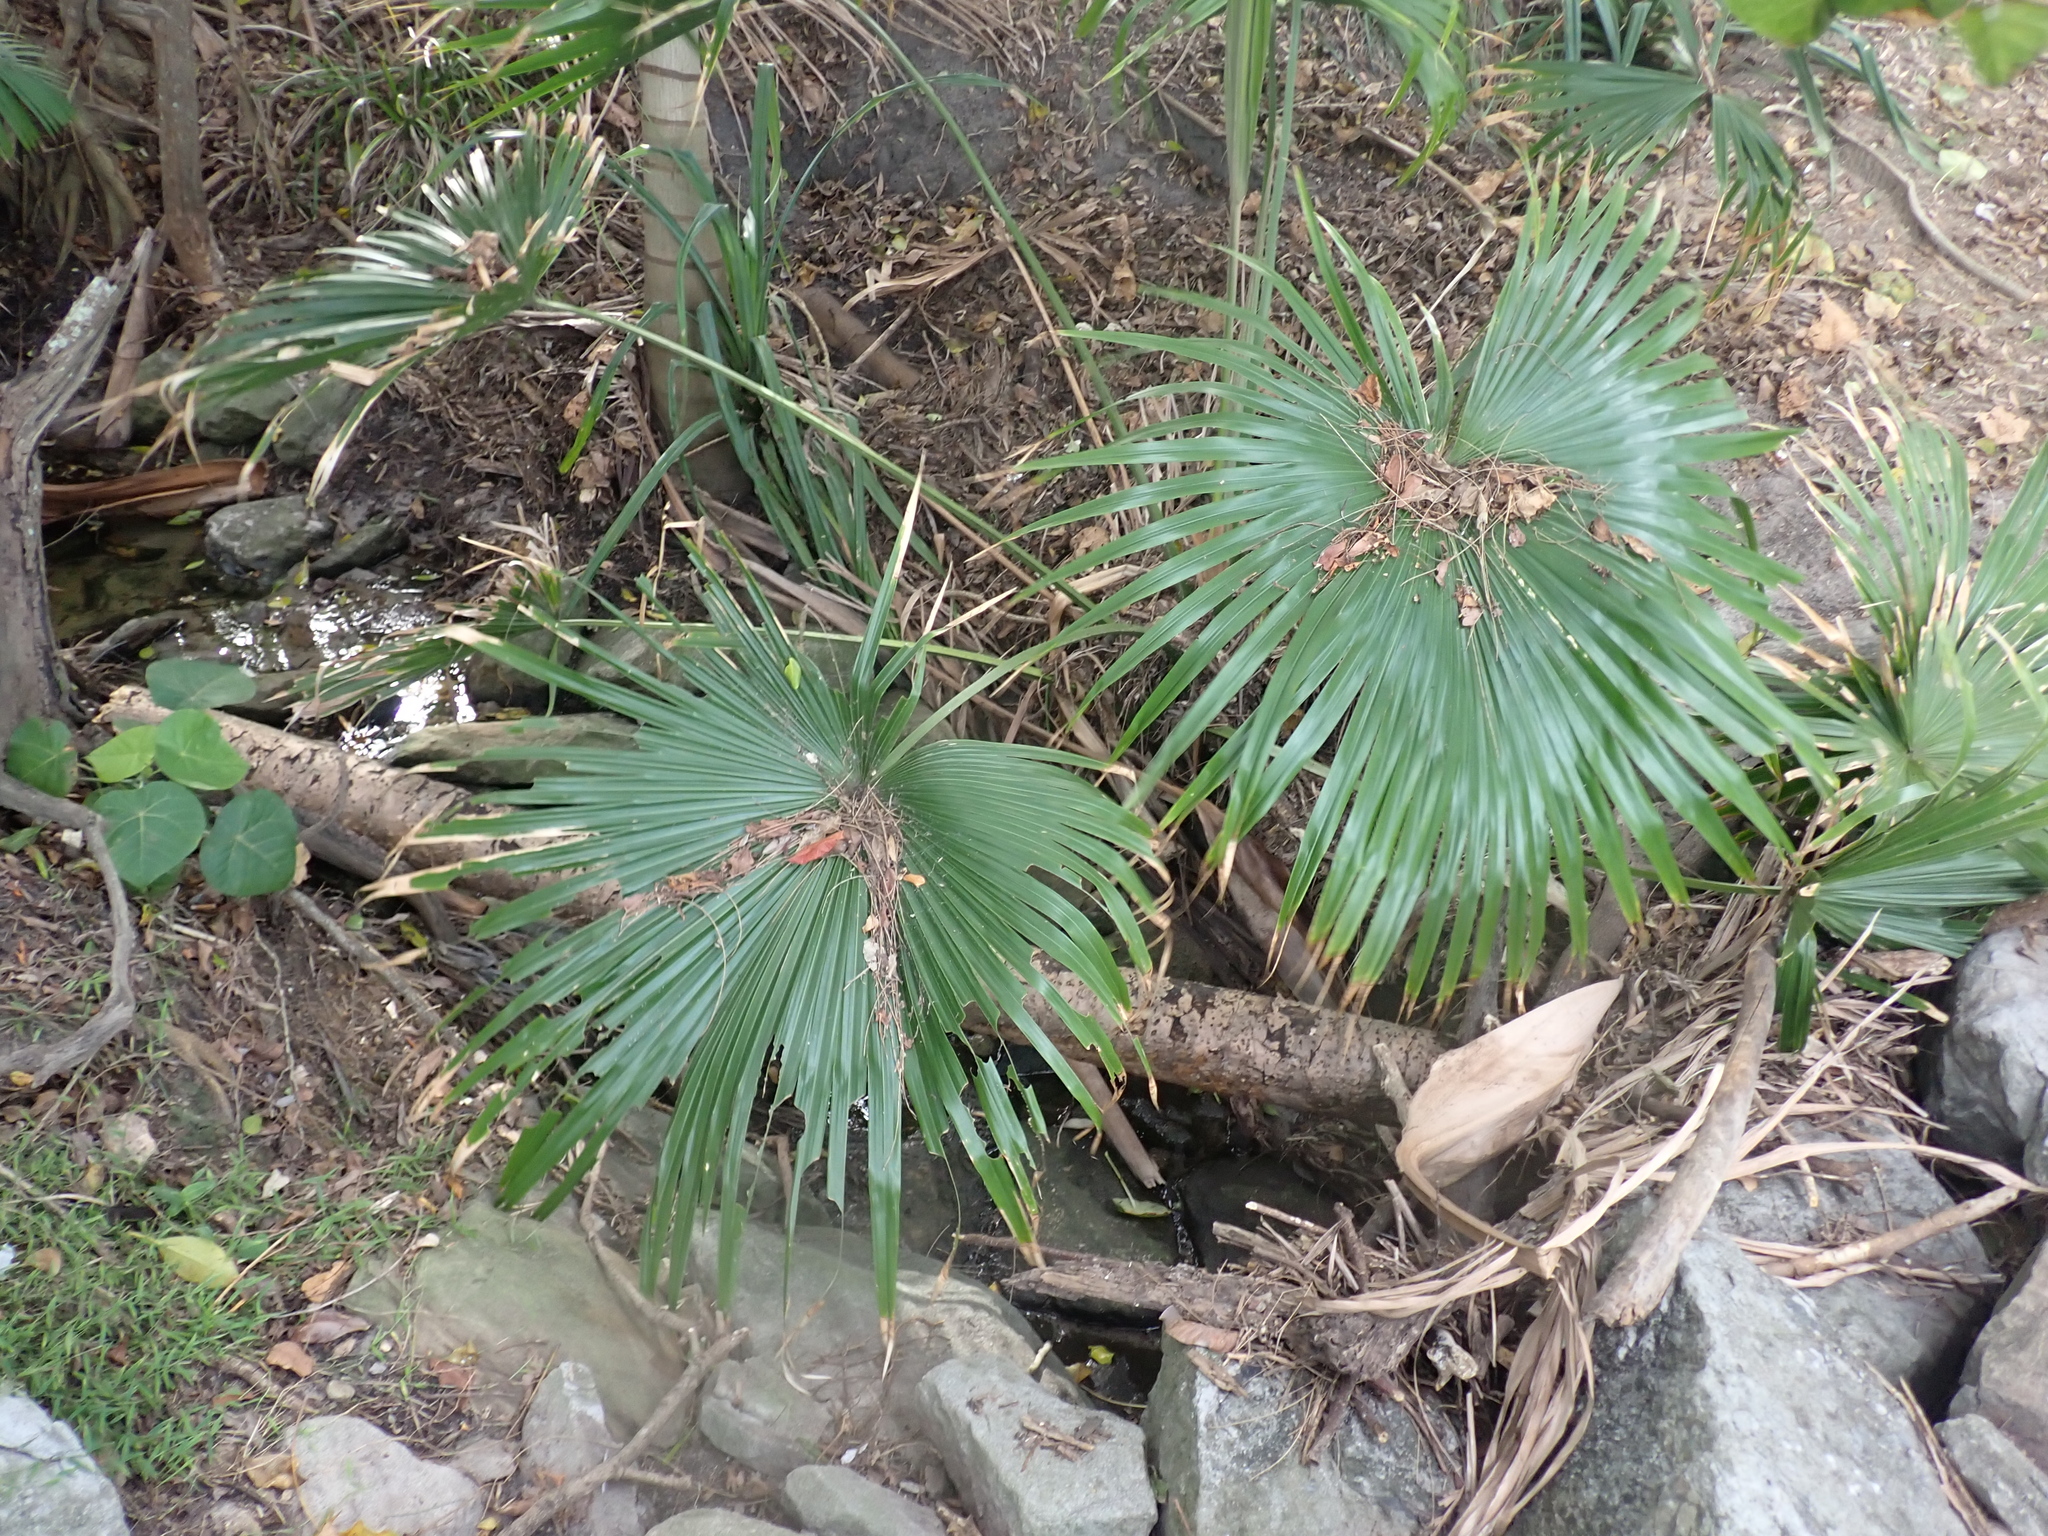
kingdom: Plantae
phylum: Tracheophyta
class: Liliopsida
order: Arecales
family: Arecaceae
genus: Livistona
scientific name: Livistona australis
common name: Cabbage fan palm
